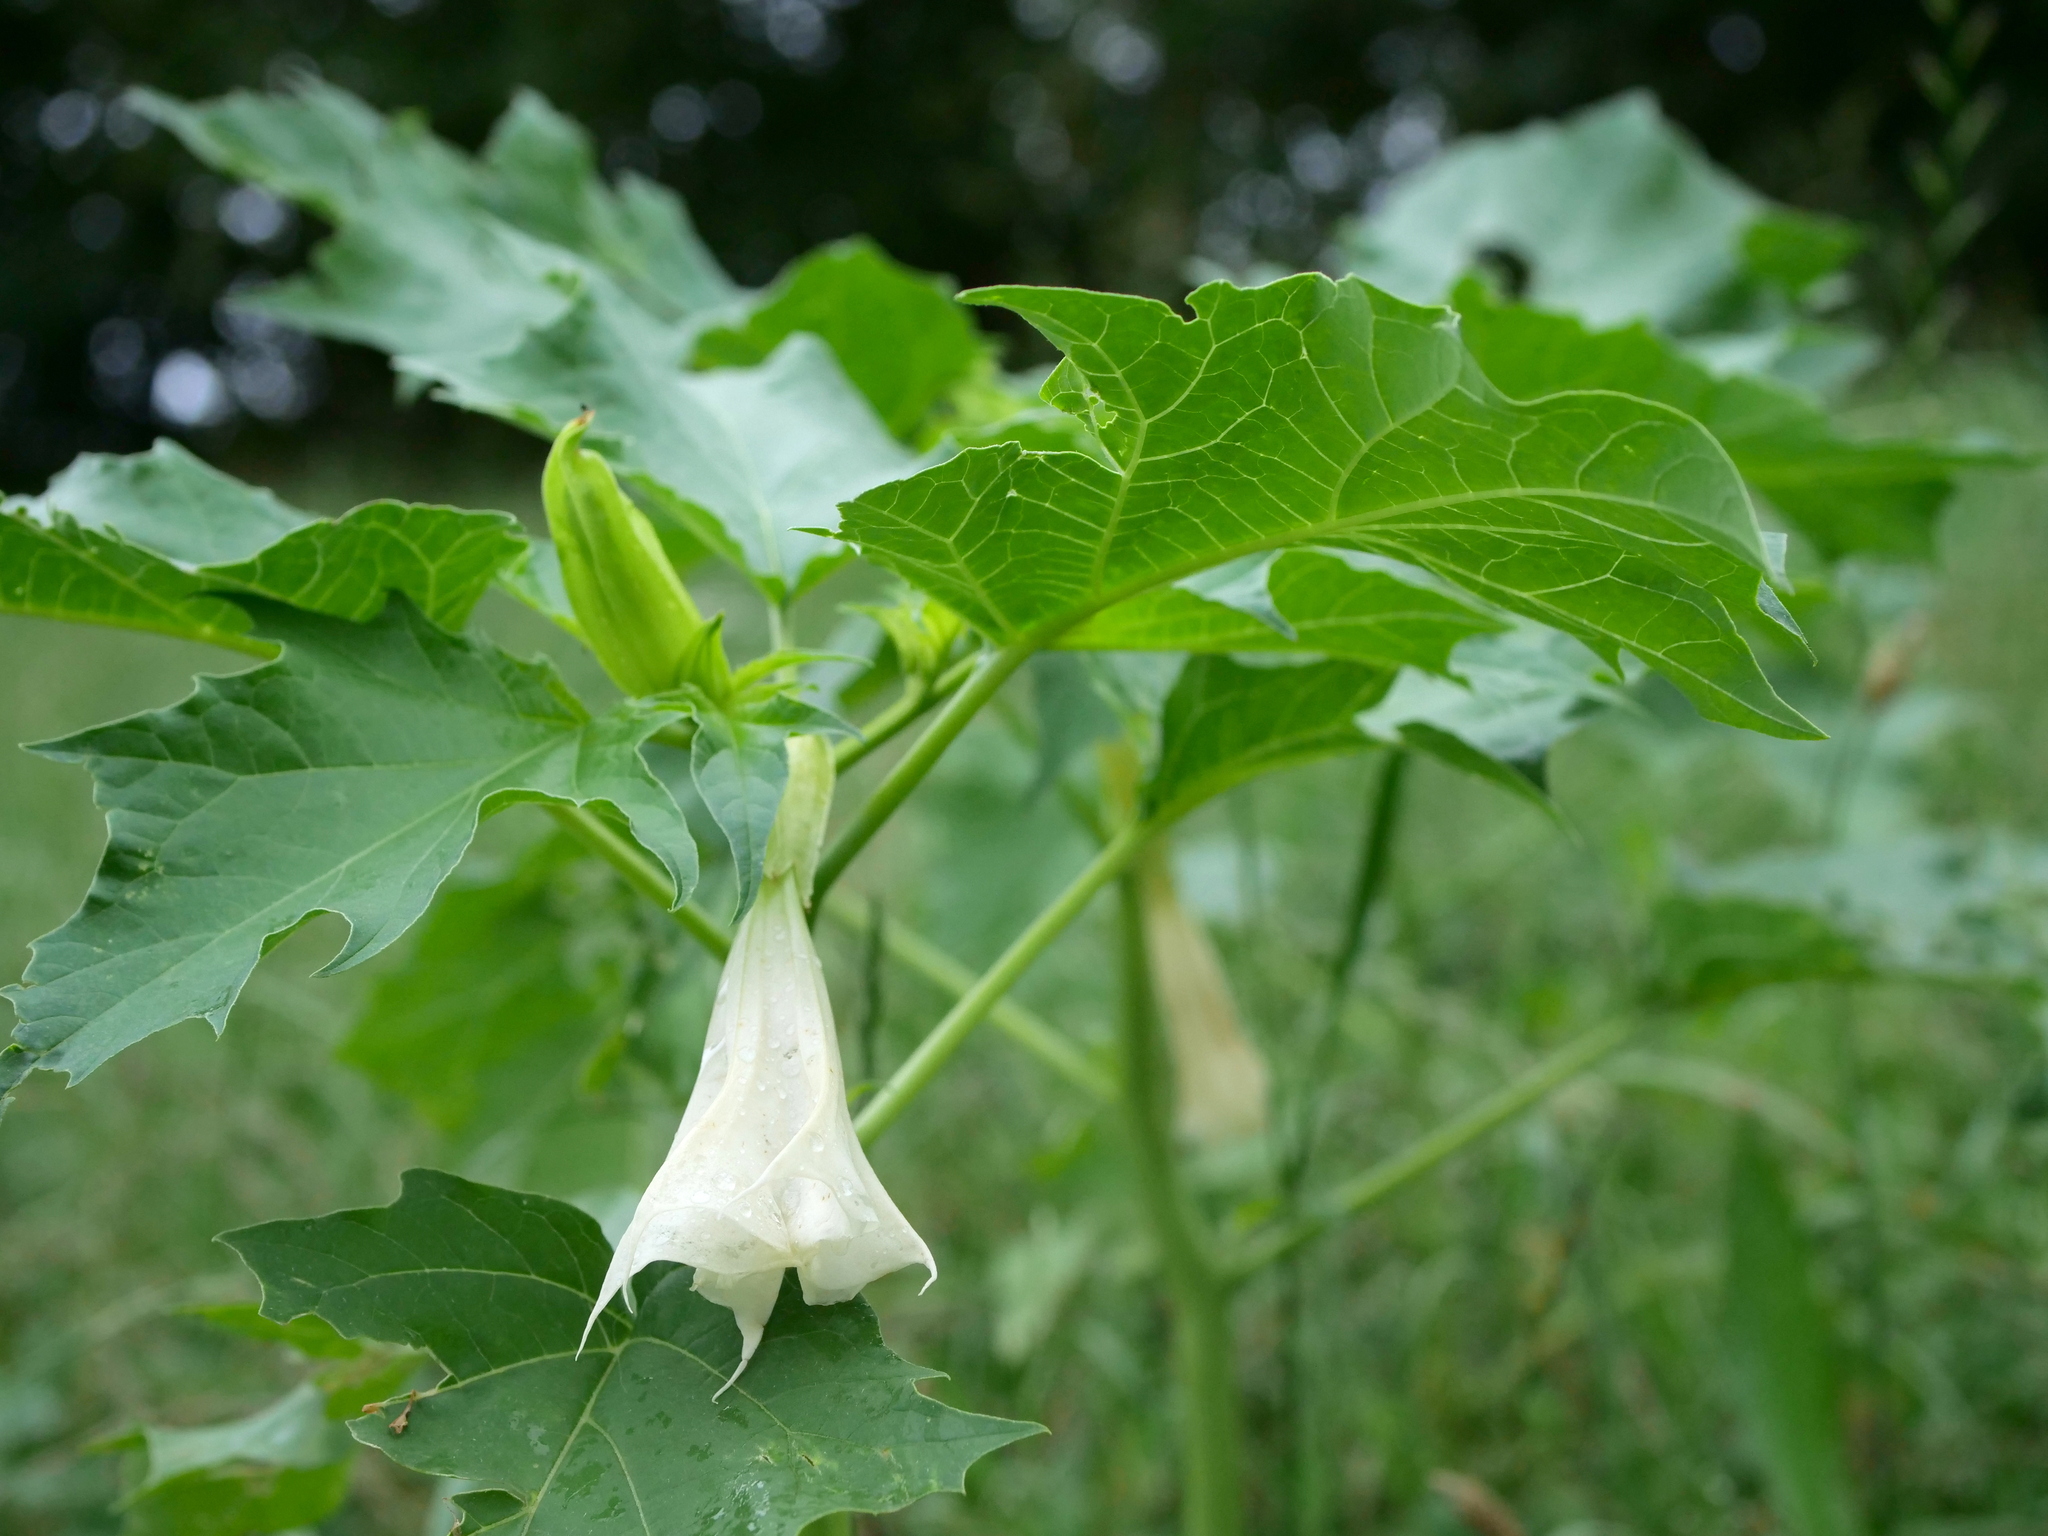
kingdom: Plantae
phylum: Tracheophyta
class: Magnoliopsida
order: Solanales
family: Solanaceae
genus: Datura
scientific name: Datura stramonium
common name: Thorn-apple
